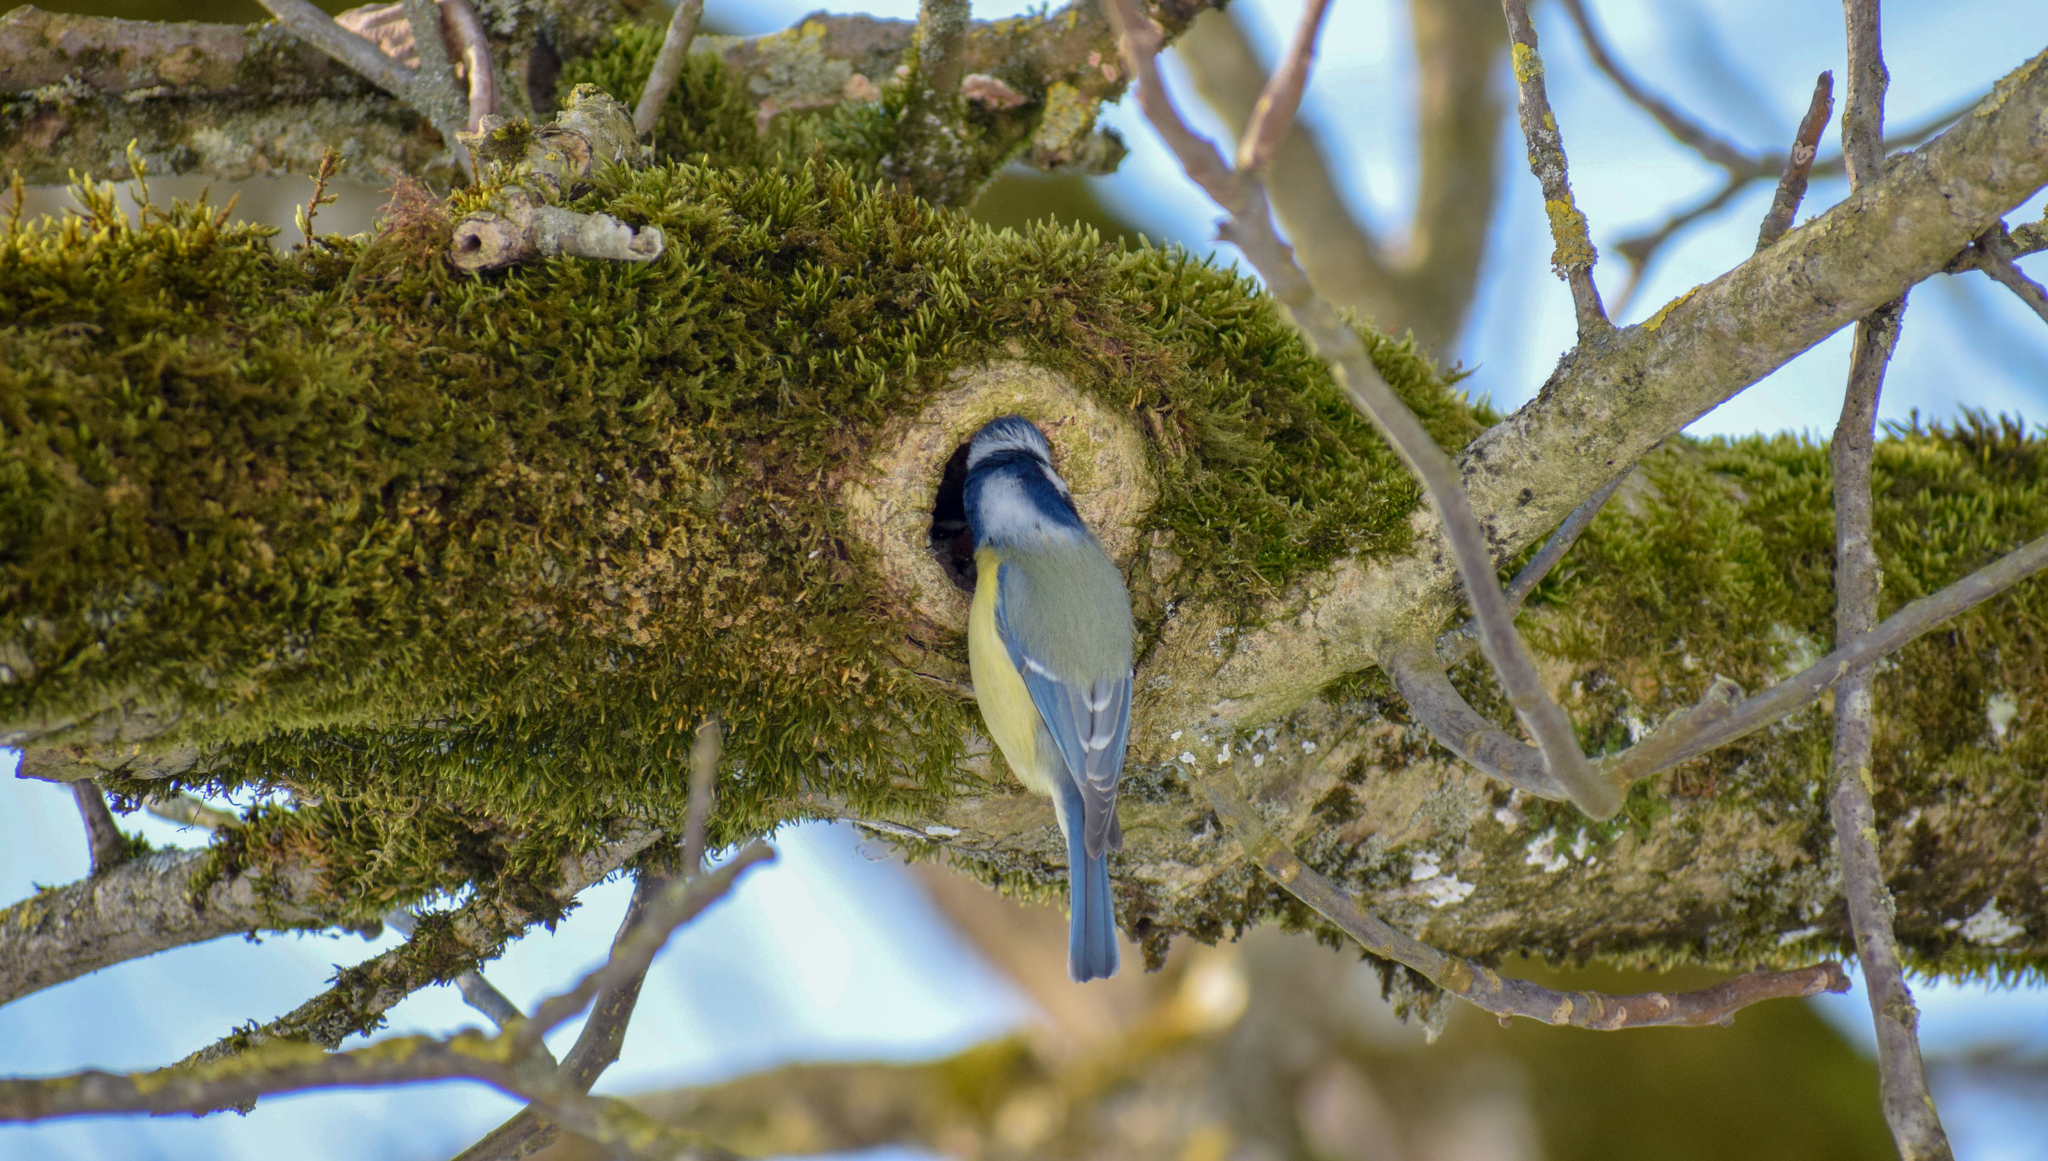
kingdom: Animalia
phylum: Chordata
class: Aves
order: Passeriformes
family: Paridae
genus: Cyanistes
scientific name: Cyanistes caeruleus
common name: Eurasian blue tit
